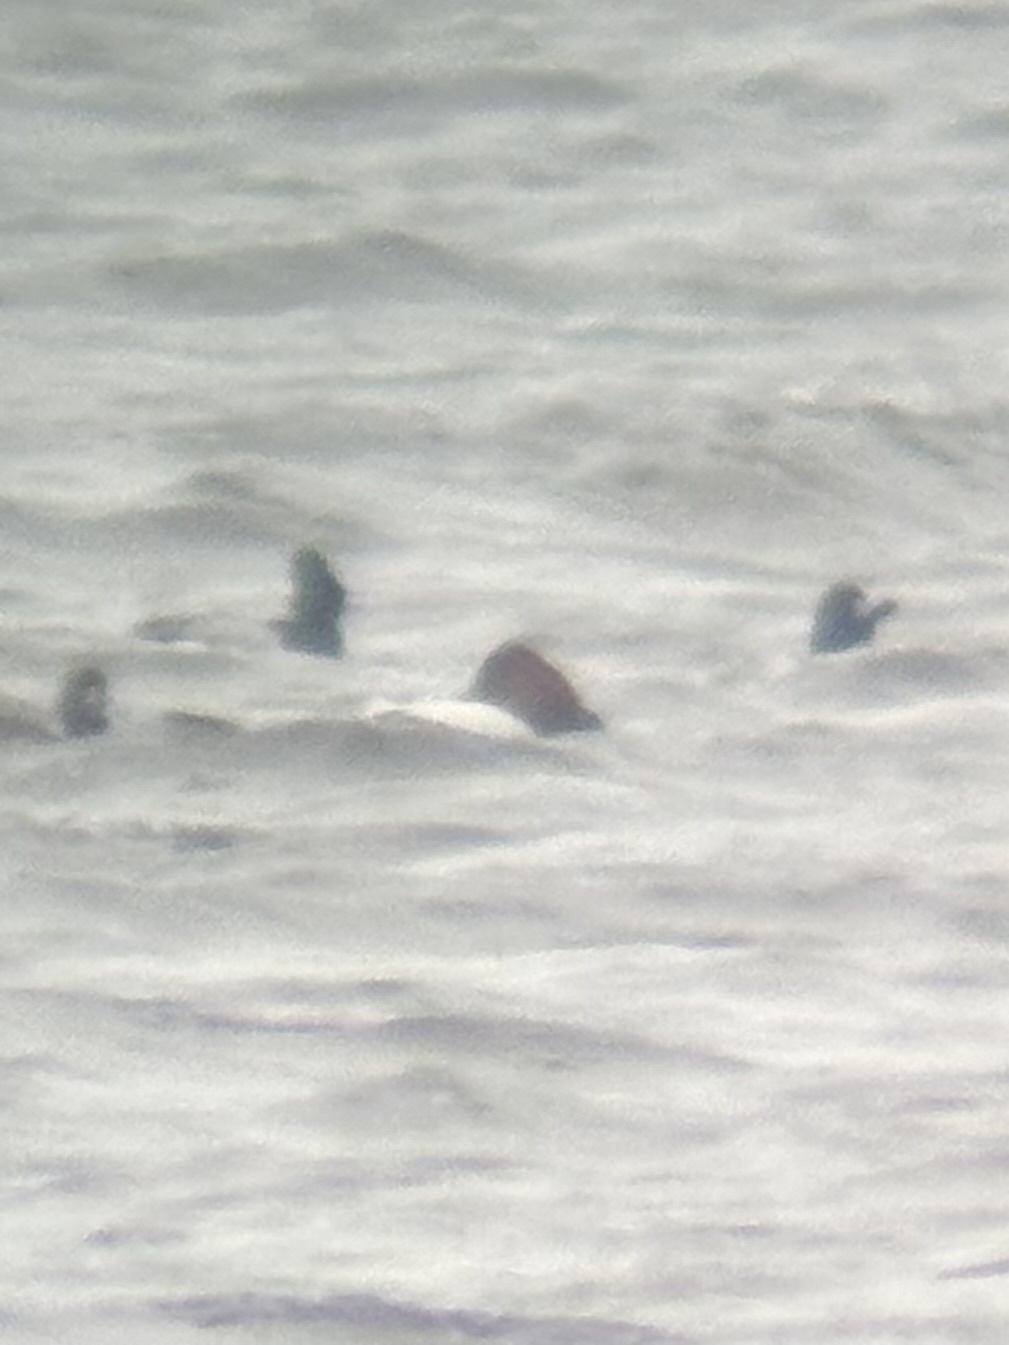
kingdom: Animalia
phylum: Chordata
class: Aves
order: Anseriformes
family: Anatidae
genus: Aythya
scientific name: Aythya valisineria
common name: Canvasback
